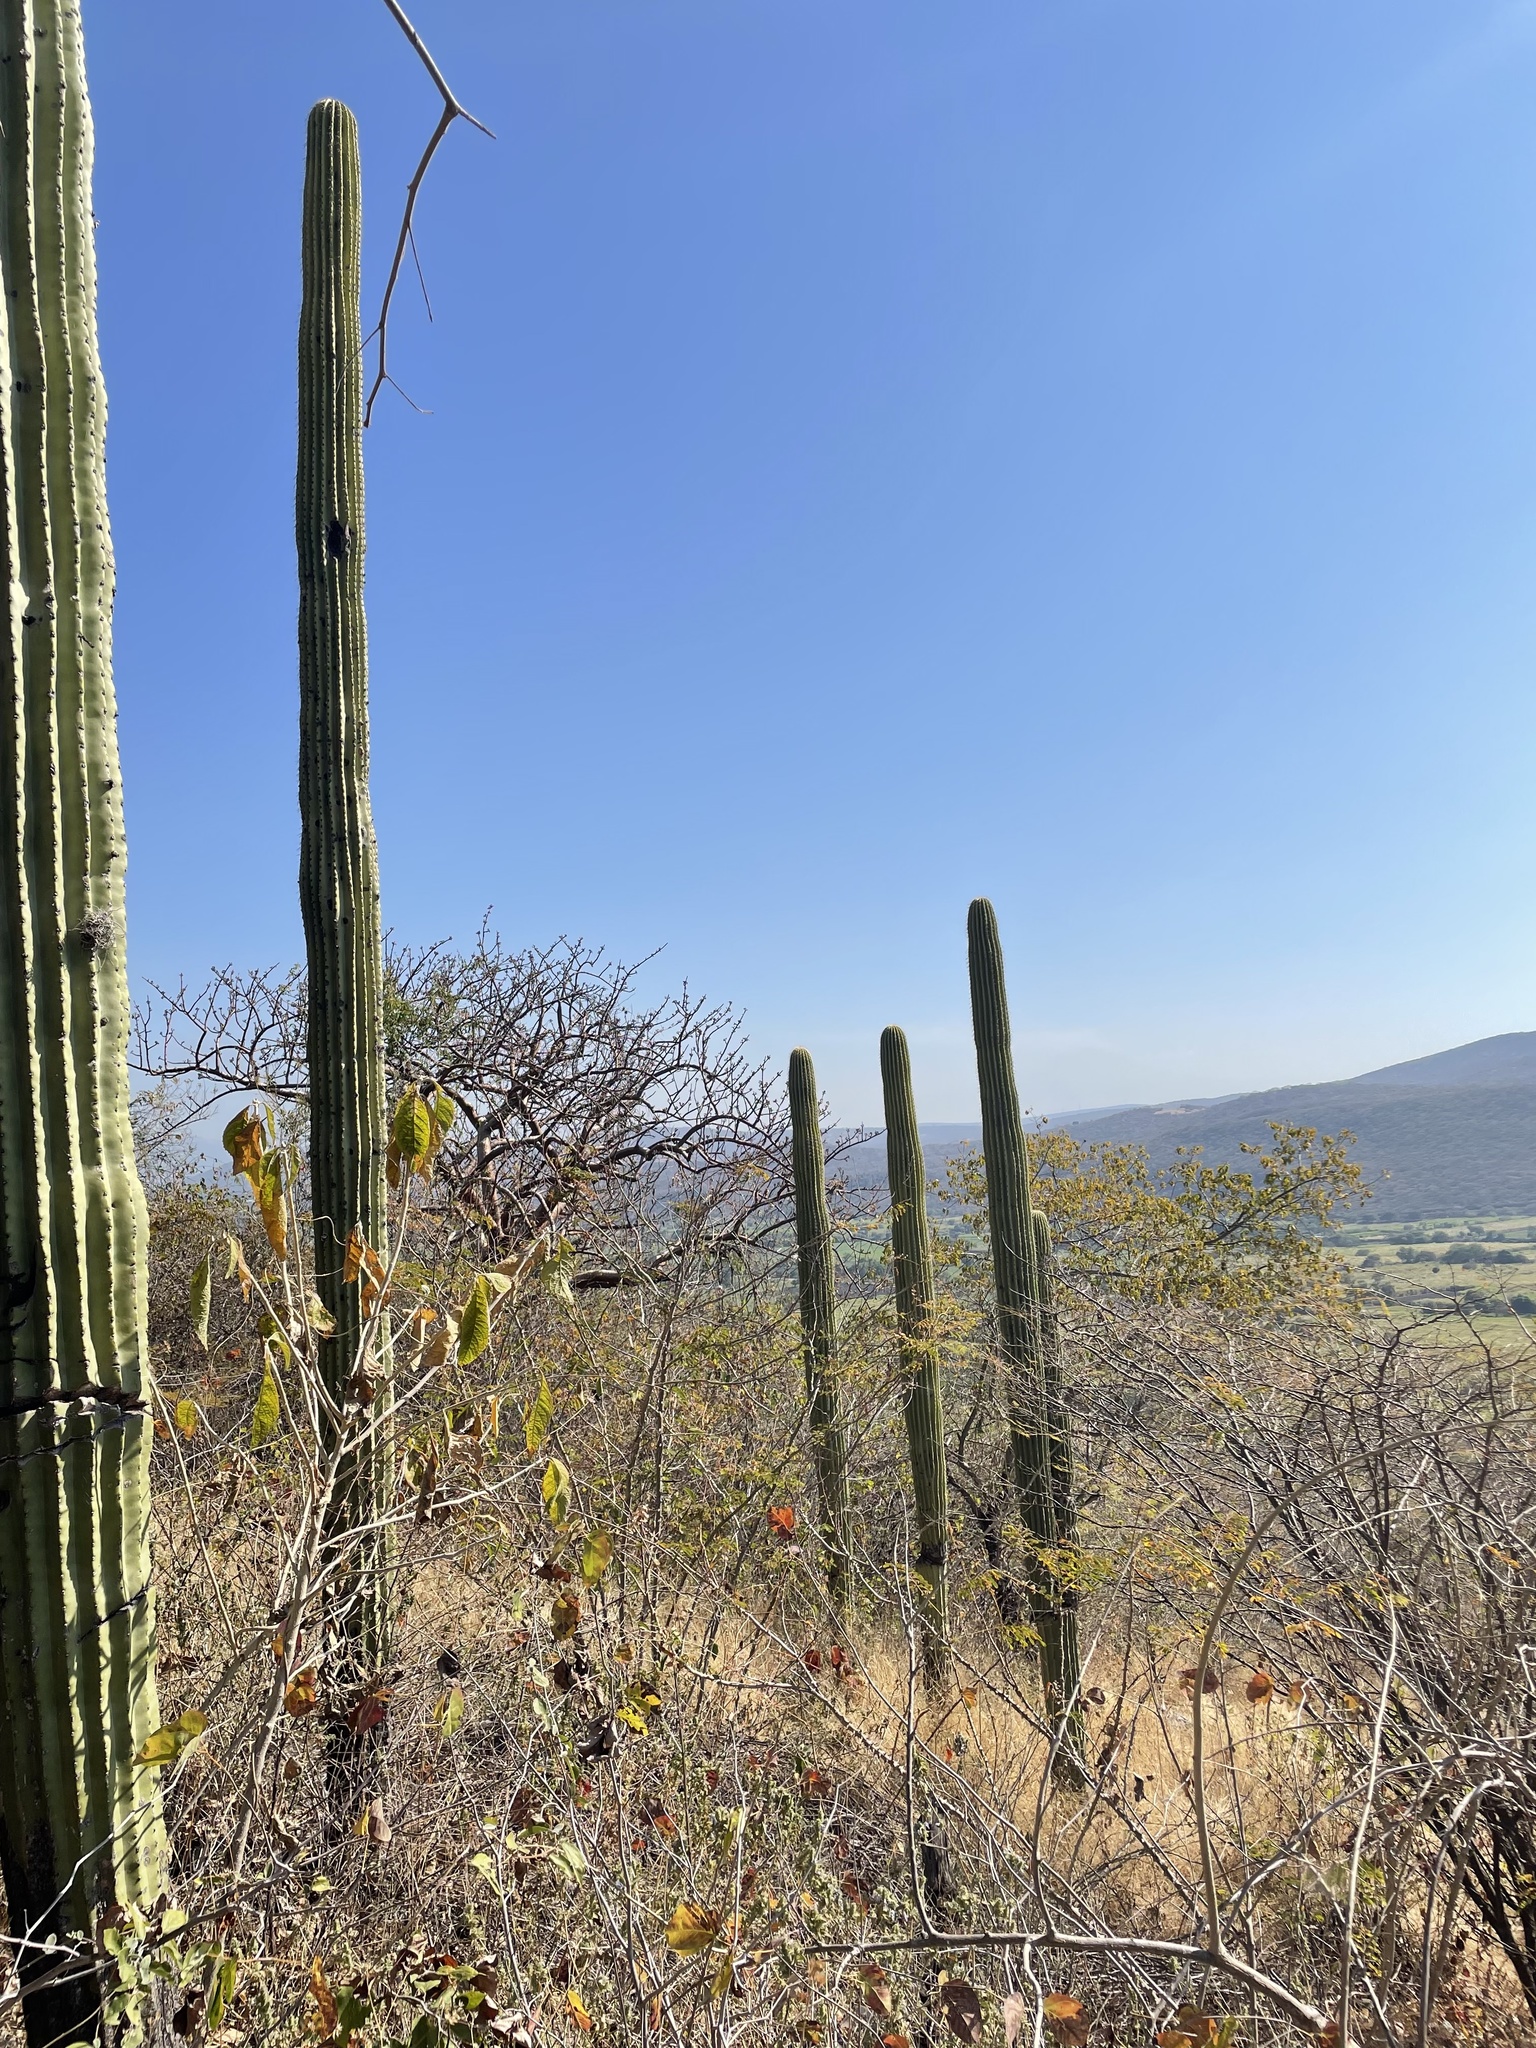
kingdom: Plantae
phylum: Tracheophyta
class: Magnoliopsida
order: Caryophyllales
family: Cactaceae
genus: Cephalocereus
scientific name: Cephalocereus mezcalaensis
